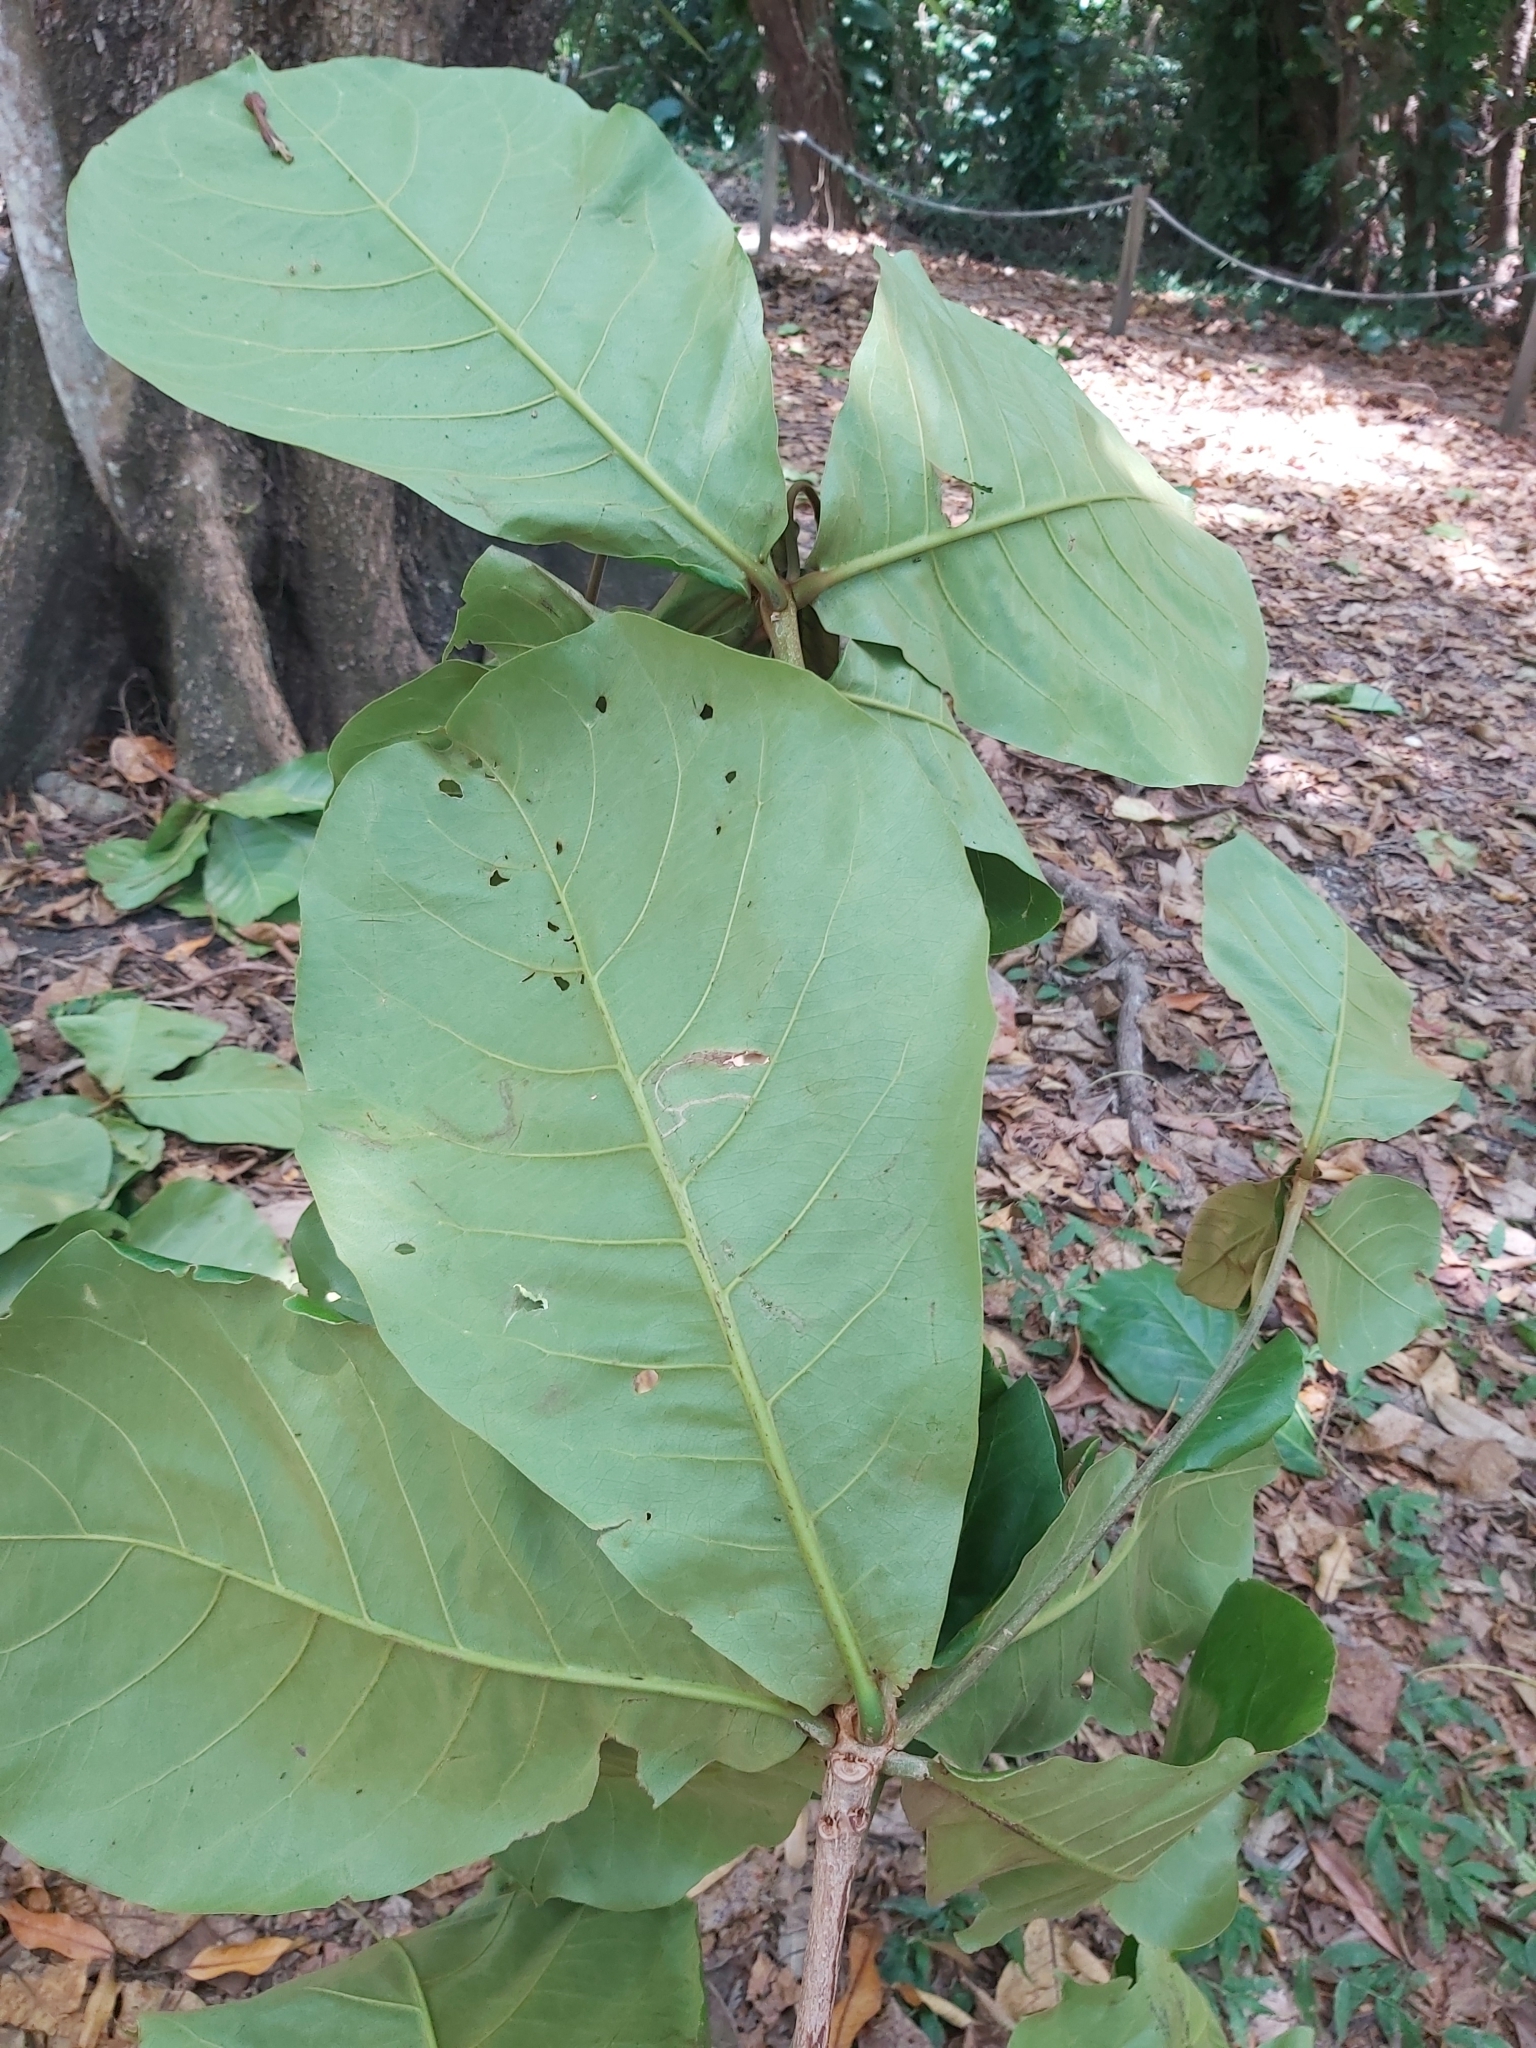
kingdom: Plantae
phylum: Tracheophyta
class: Magnoliopsida
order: Myrtales
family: Combretaceae
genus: Terminalia
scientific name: Terminalia catappa
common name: Tropical almond
